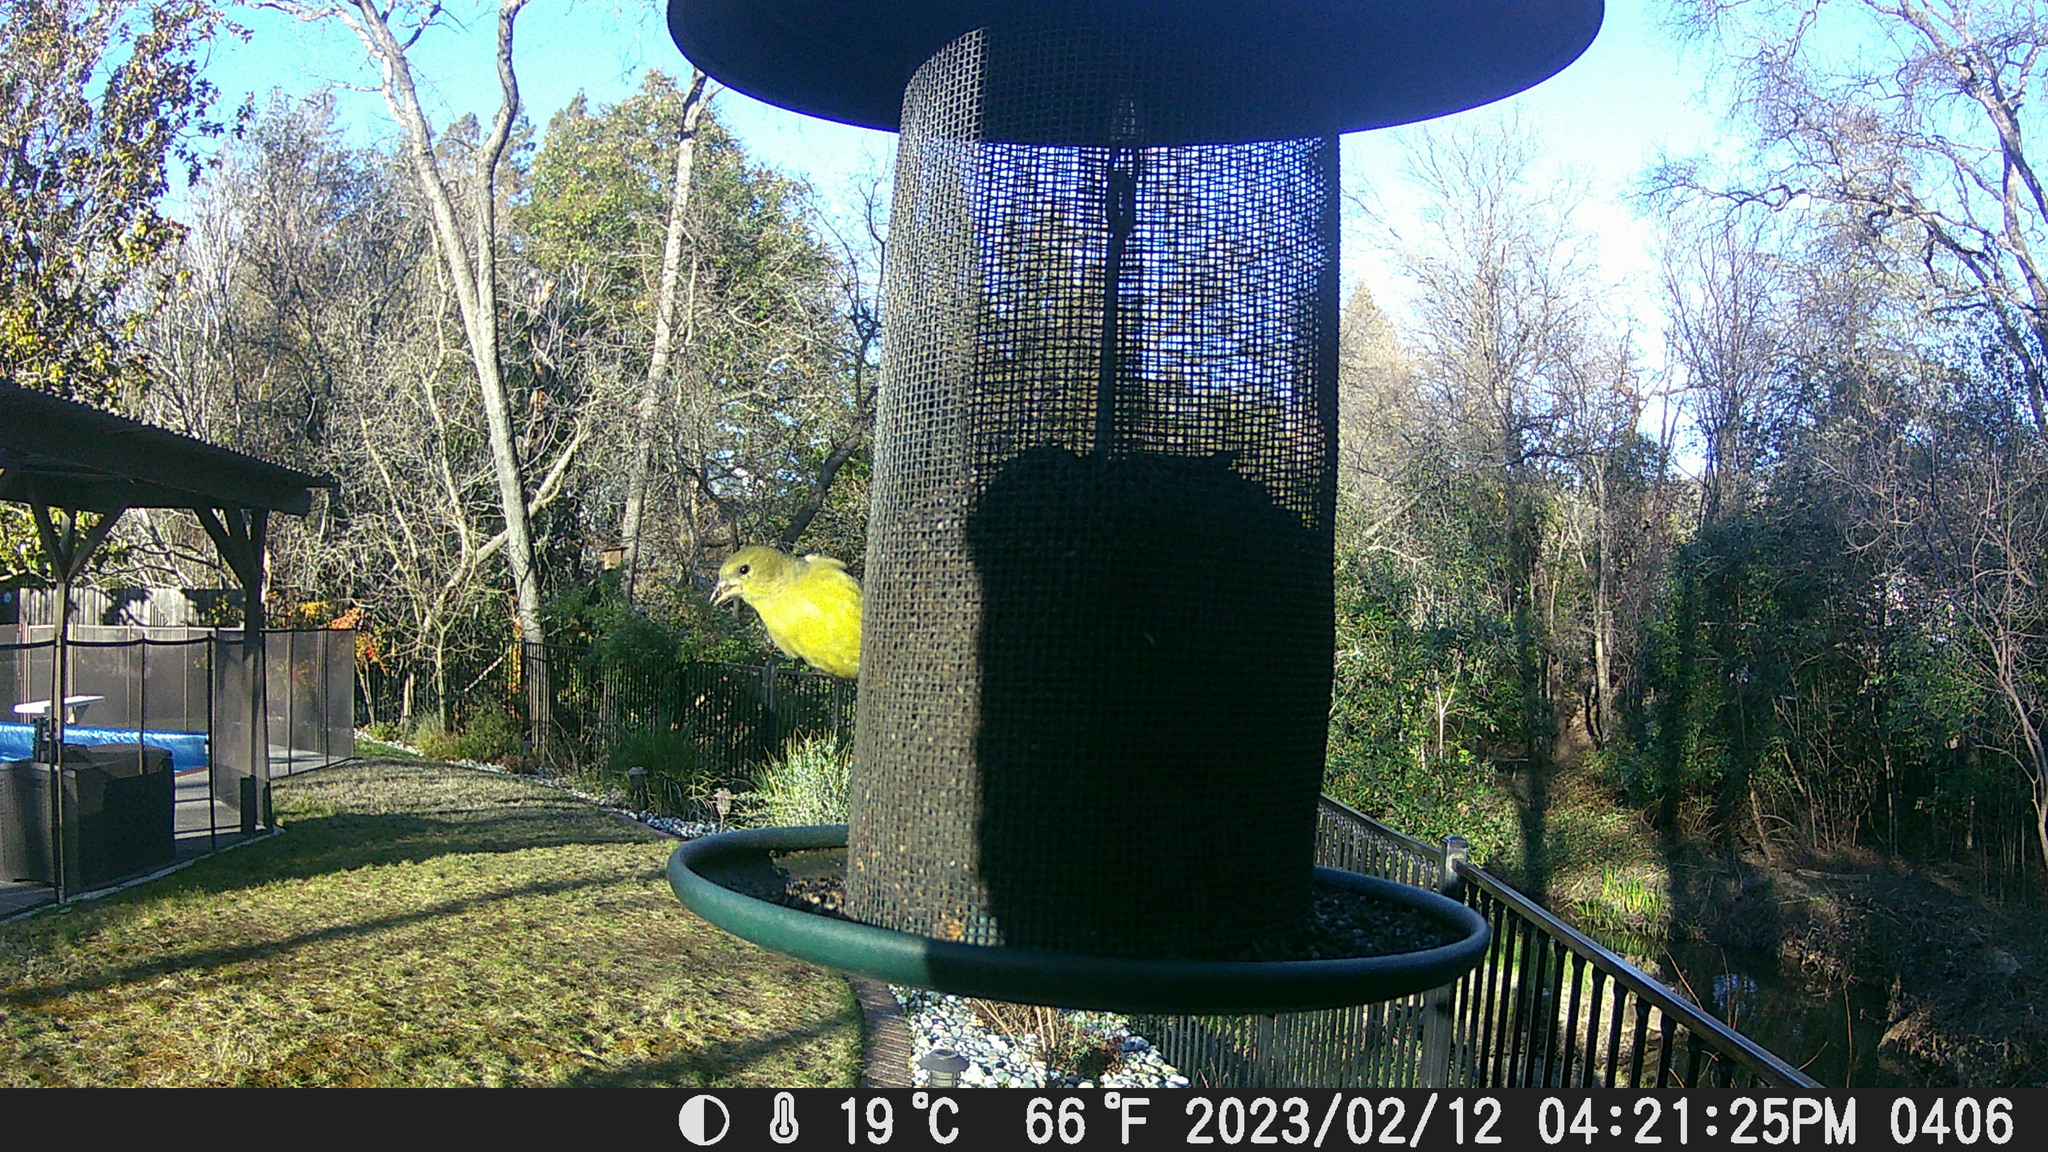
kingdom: Animalia
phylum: Chordata
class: Aves
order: Passeriformes
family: Fringillidae
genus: Spinus
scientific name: Spinus psaltria
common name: Lesser goldfinch
